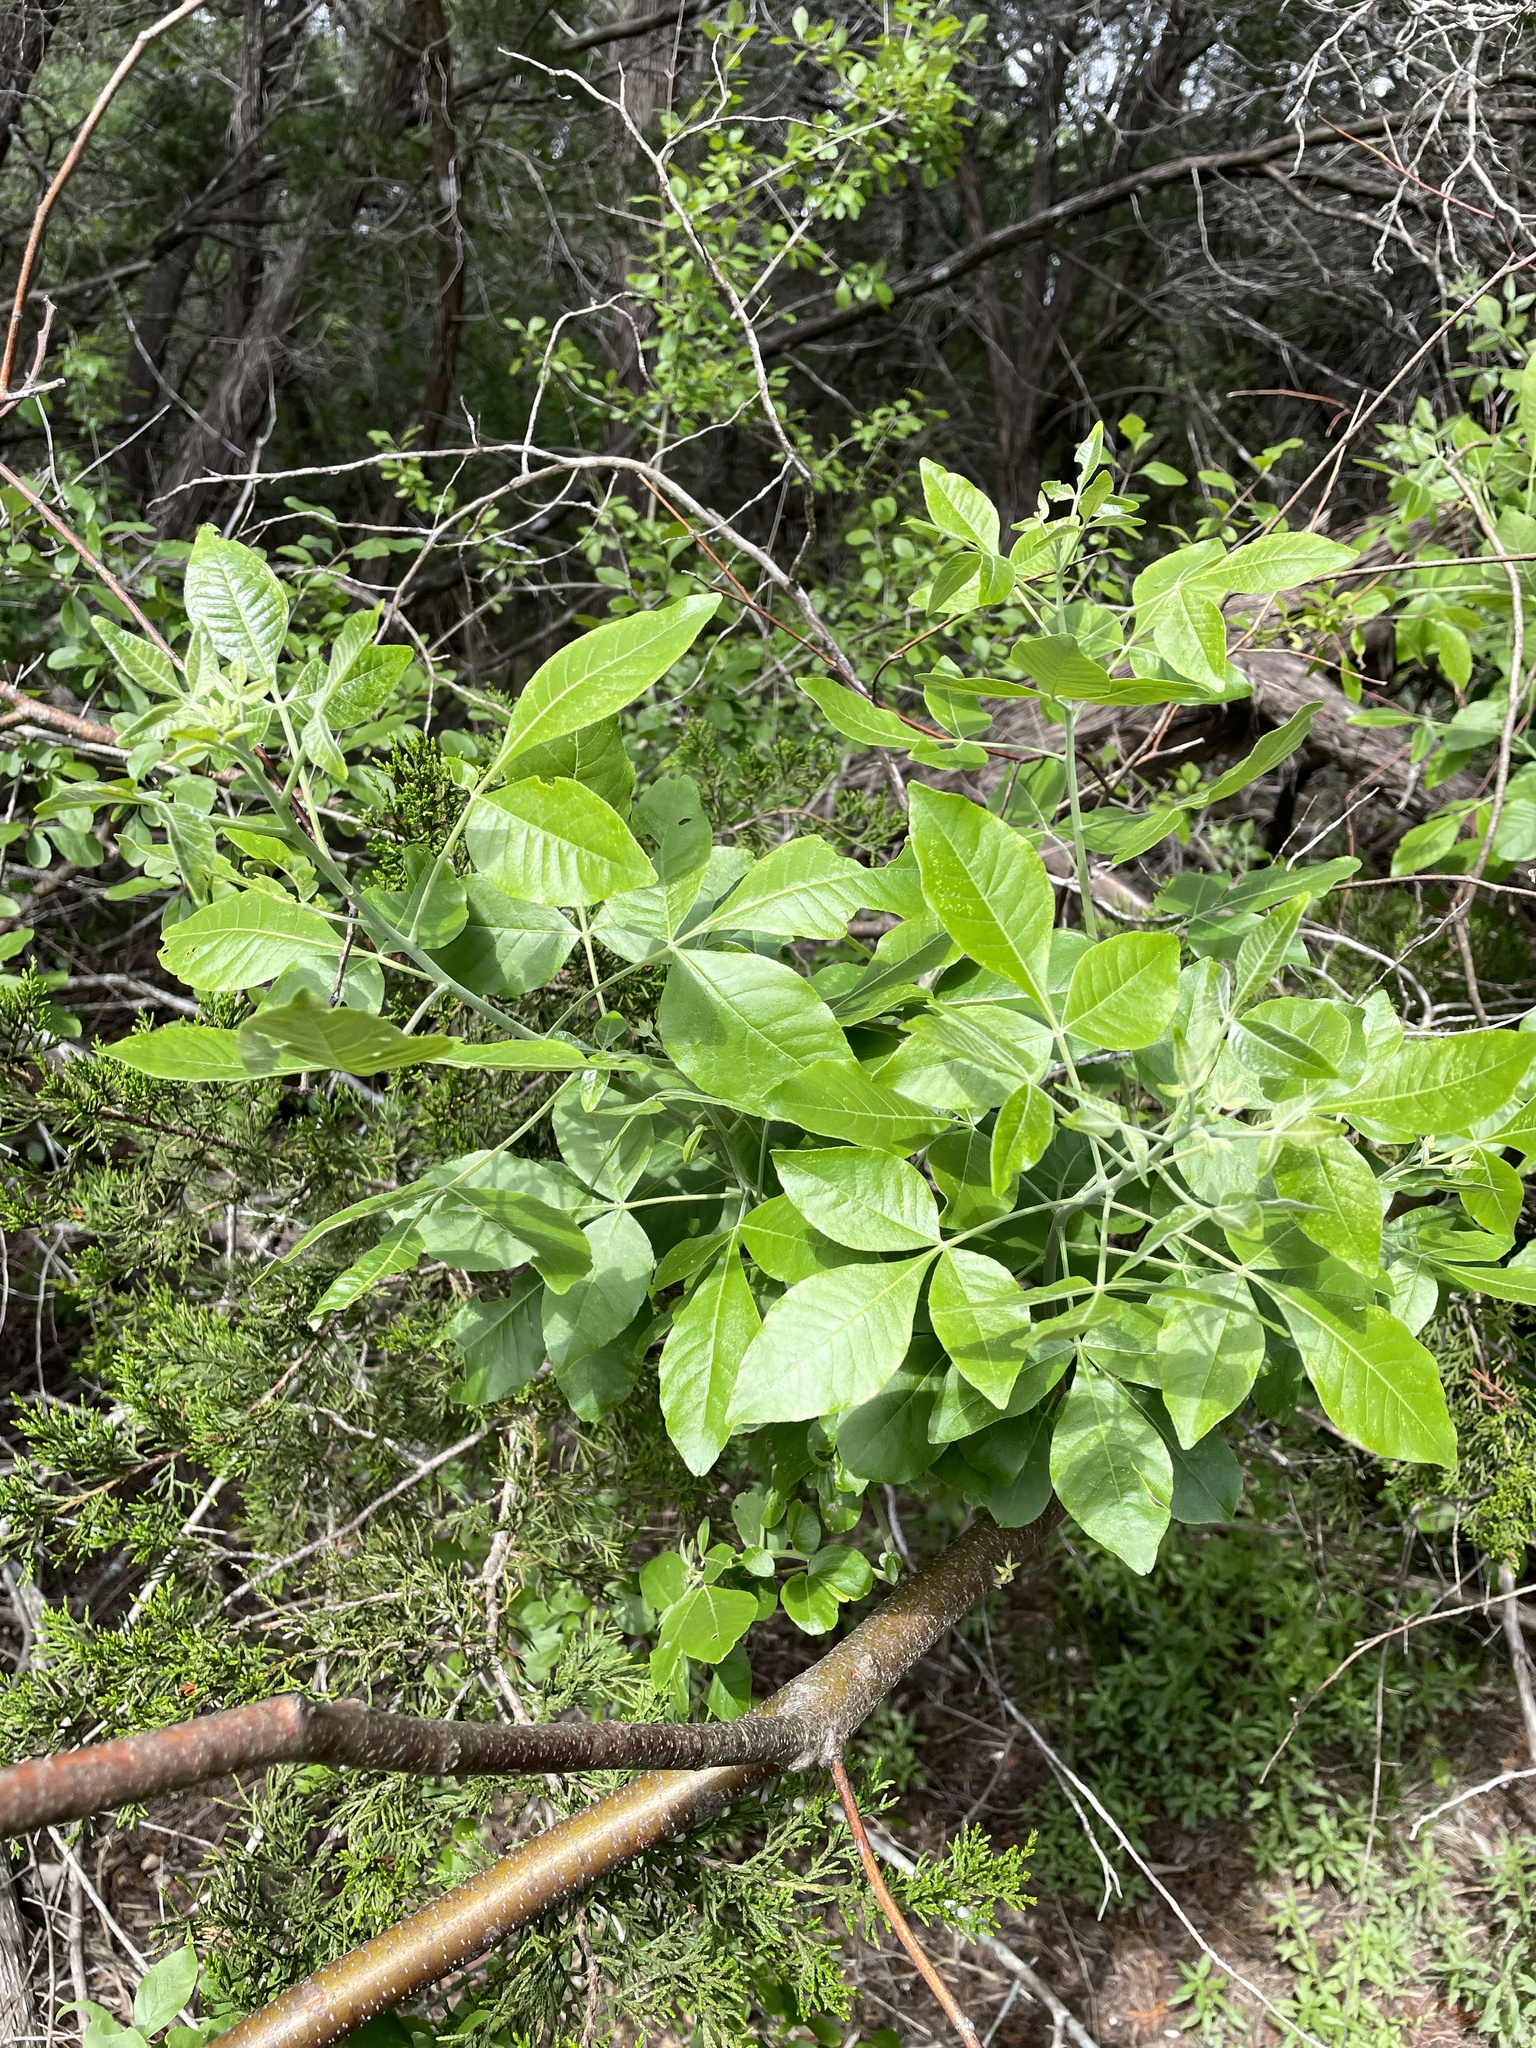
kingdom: Plantae
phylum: Tracheophyta
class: Magnoliopsida
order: Sapindales
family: Rutaceae
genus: Ptelea
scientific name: Ptelea trifoliata
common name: Common hop-tree
